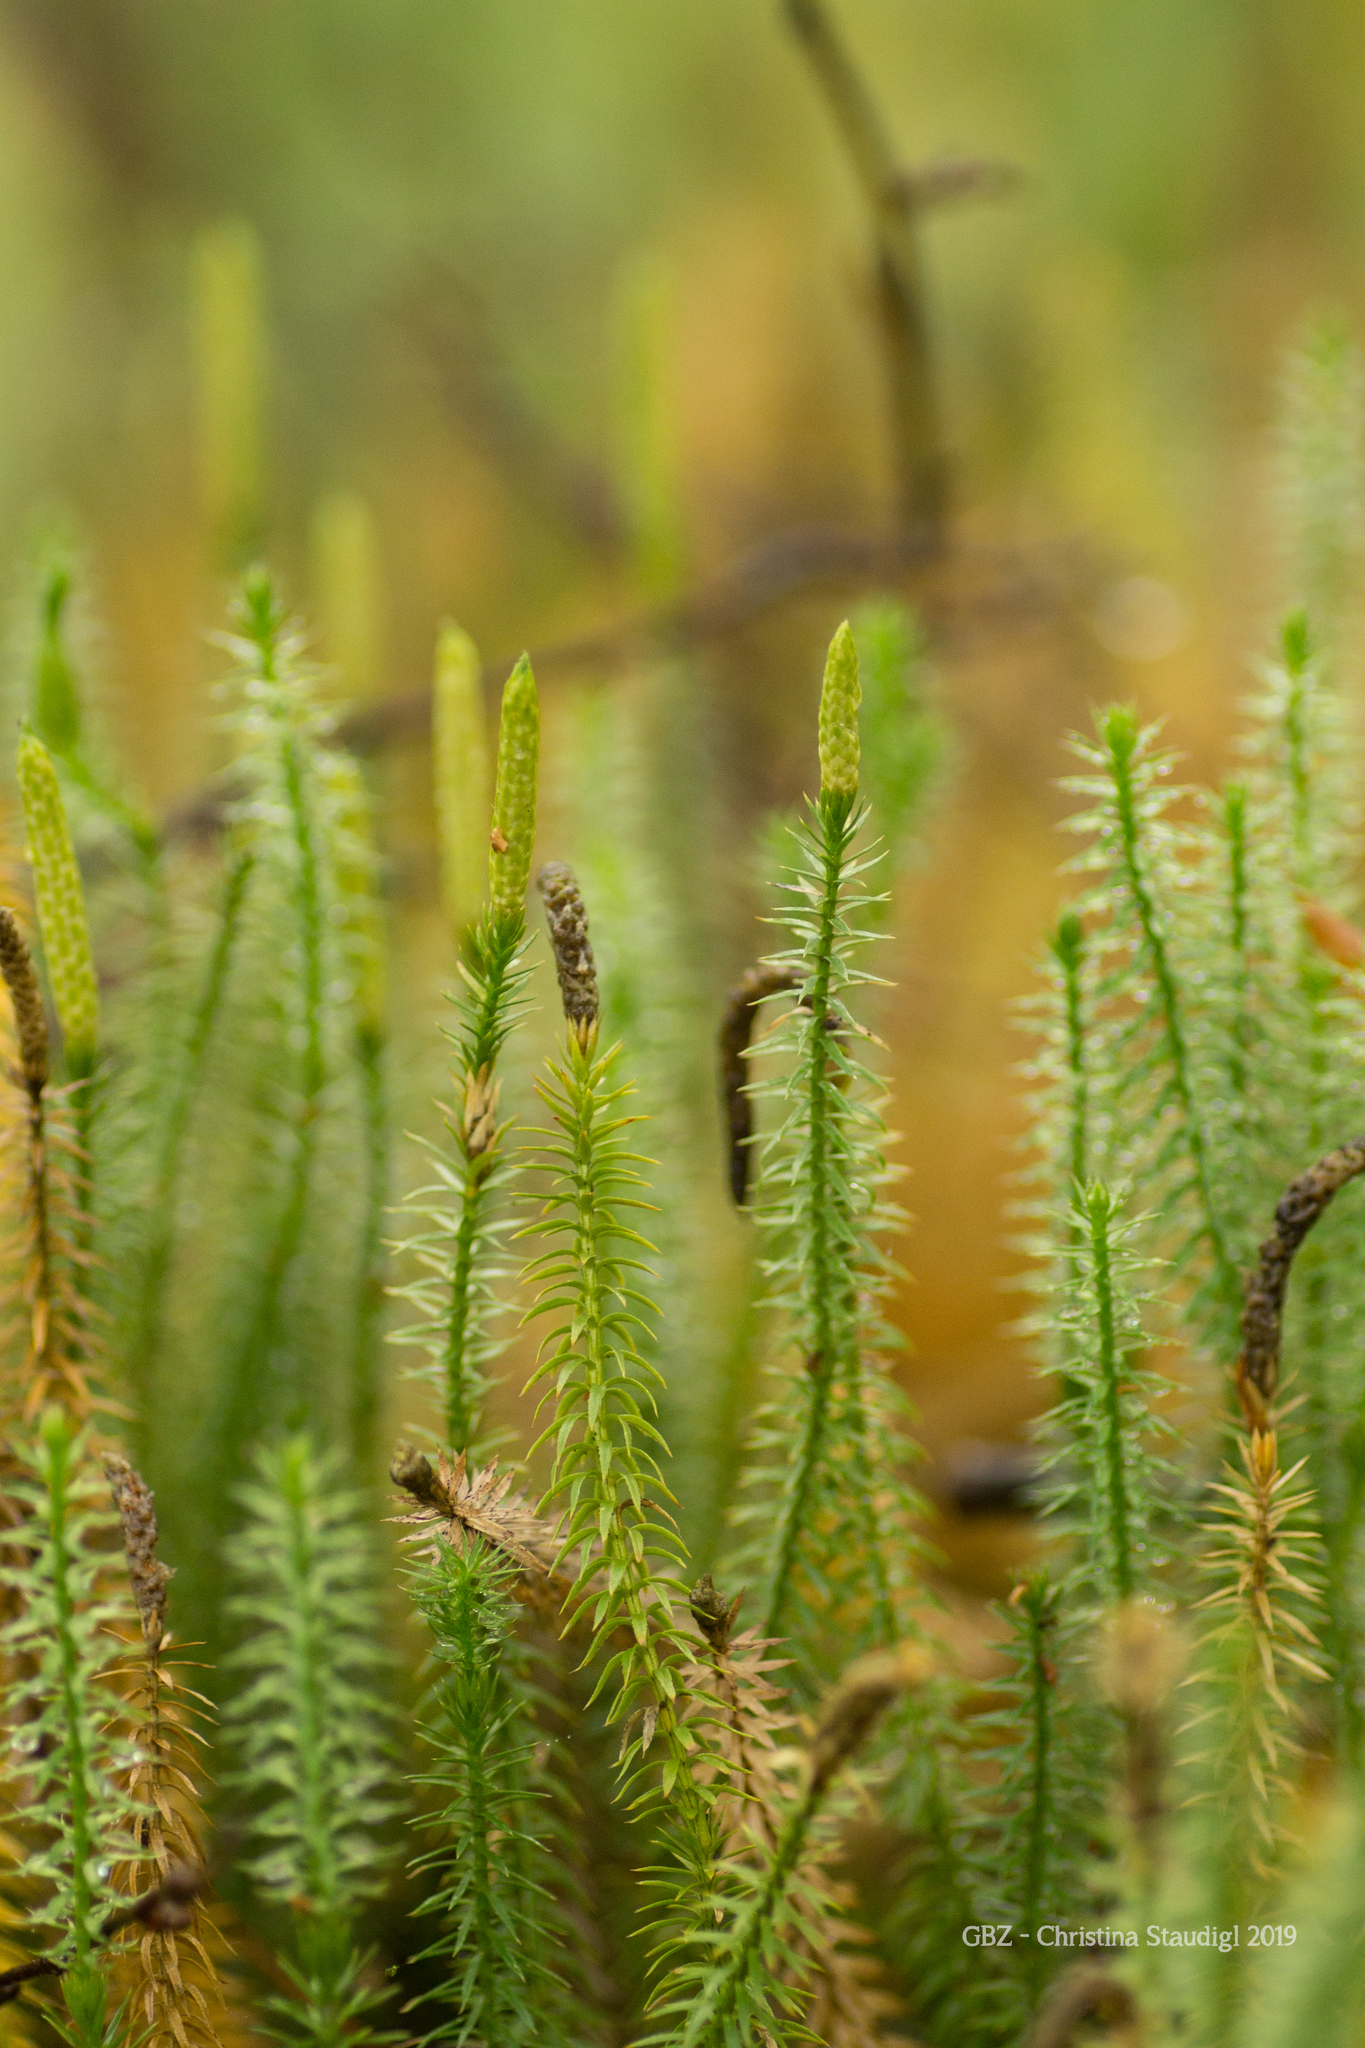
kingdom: Plantae
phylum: Tracheophyta
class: Lycopodiopsida
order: Lycopodiales
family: Lycopodiaceae
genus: Spinulum
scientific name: Spinulum annotinum
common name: Interrupted club-moss
